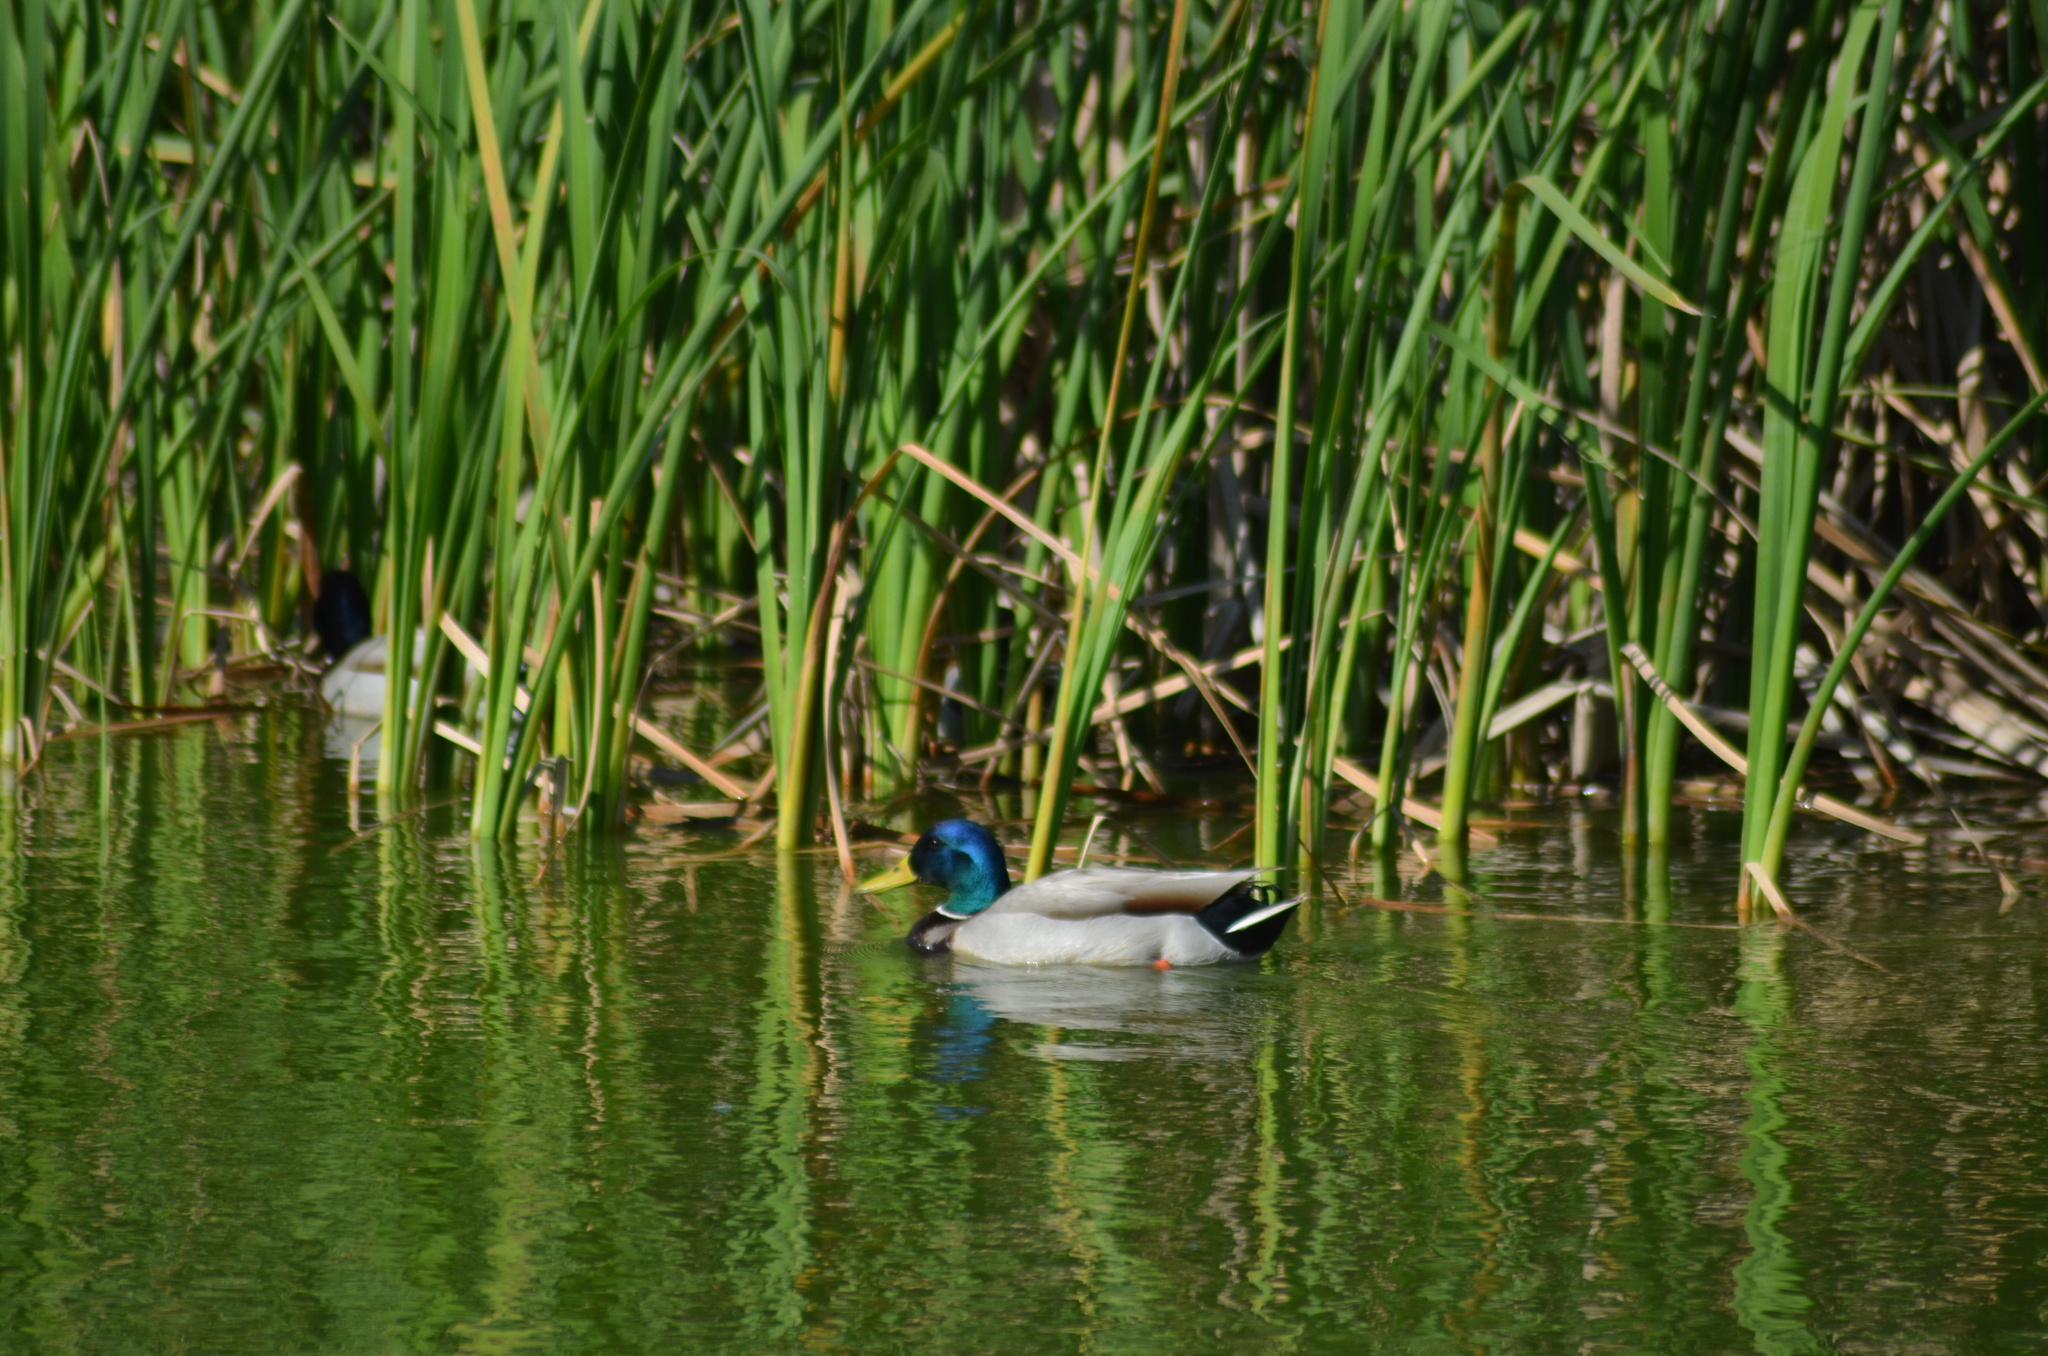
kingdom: Animalia
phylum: Chordata
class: Aves
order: Anseriformes
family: Anatidae
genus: Anas
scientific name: Anas platyrhynchos
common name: Mallard
